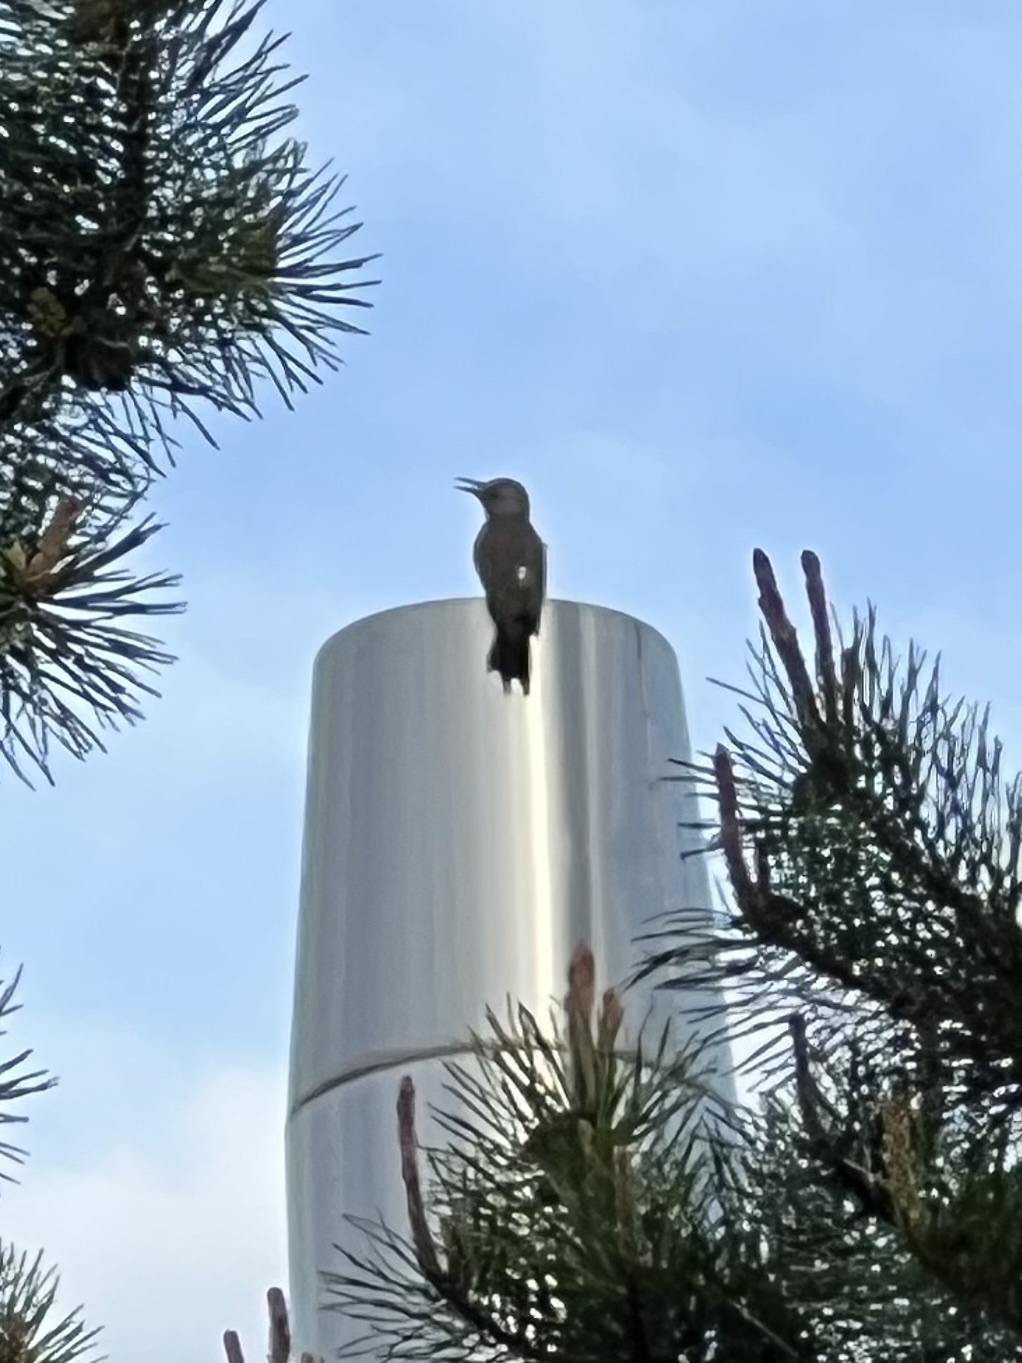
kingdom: Animalia
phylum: Chordata
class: Aves
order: Piciformes
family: Picidae
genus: Colaptes
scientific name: Colaptes auratus
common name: Northern flicker
